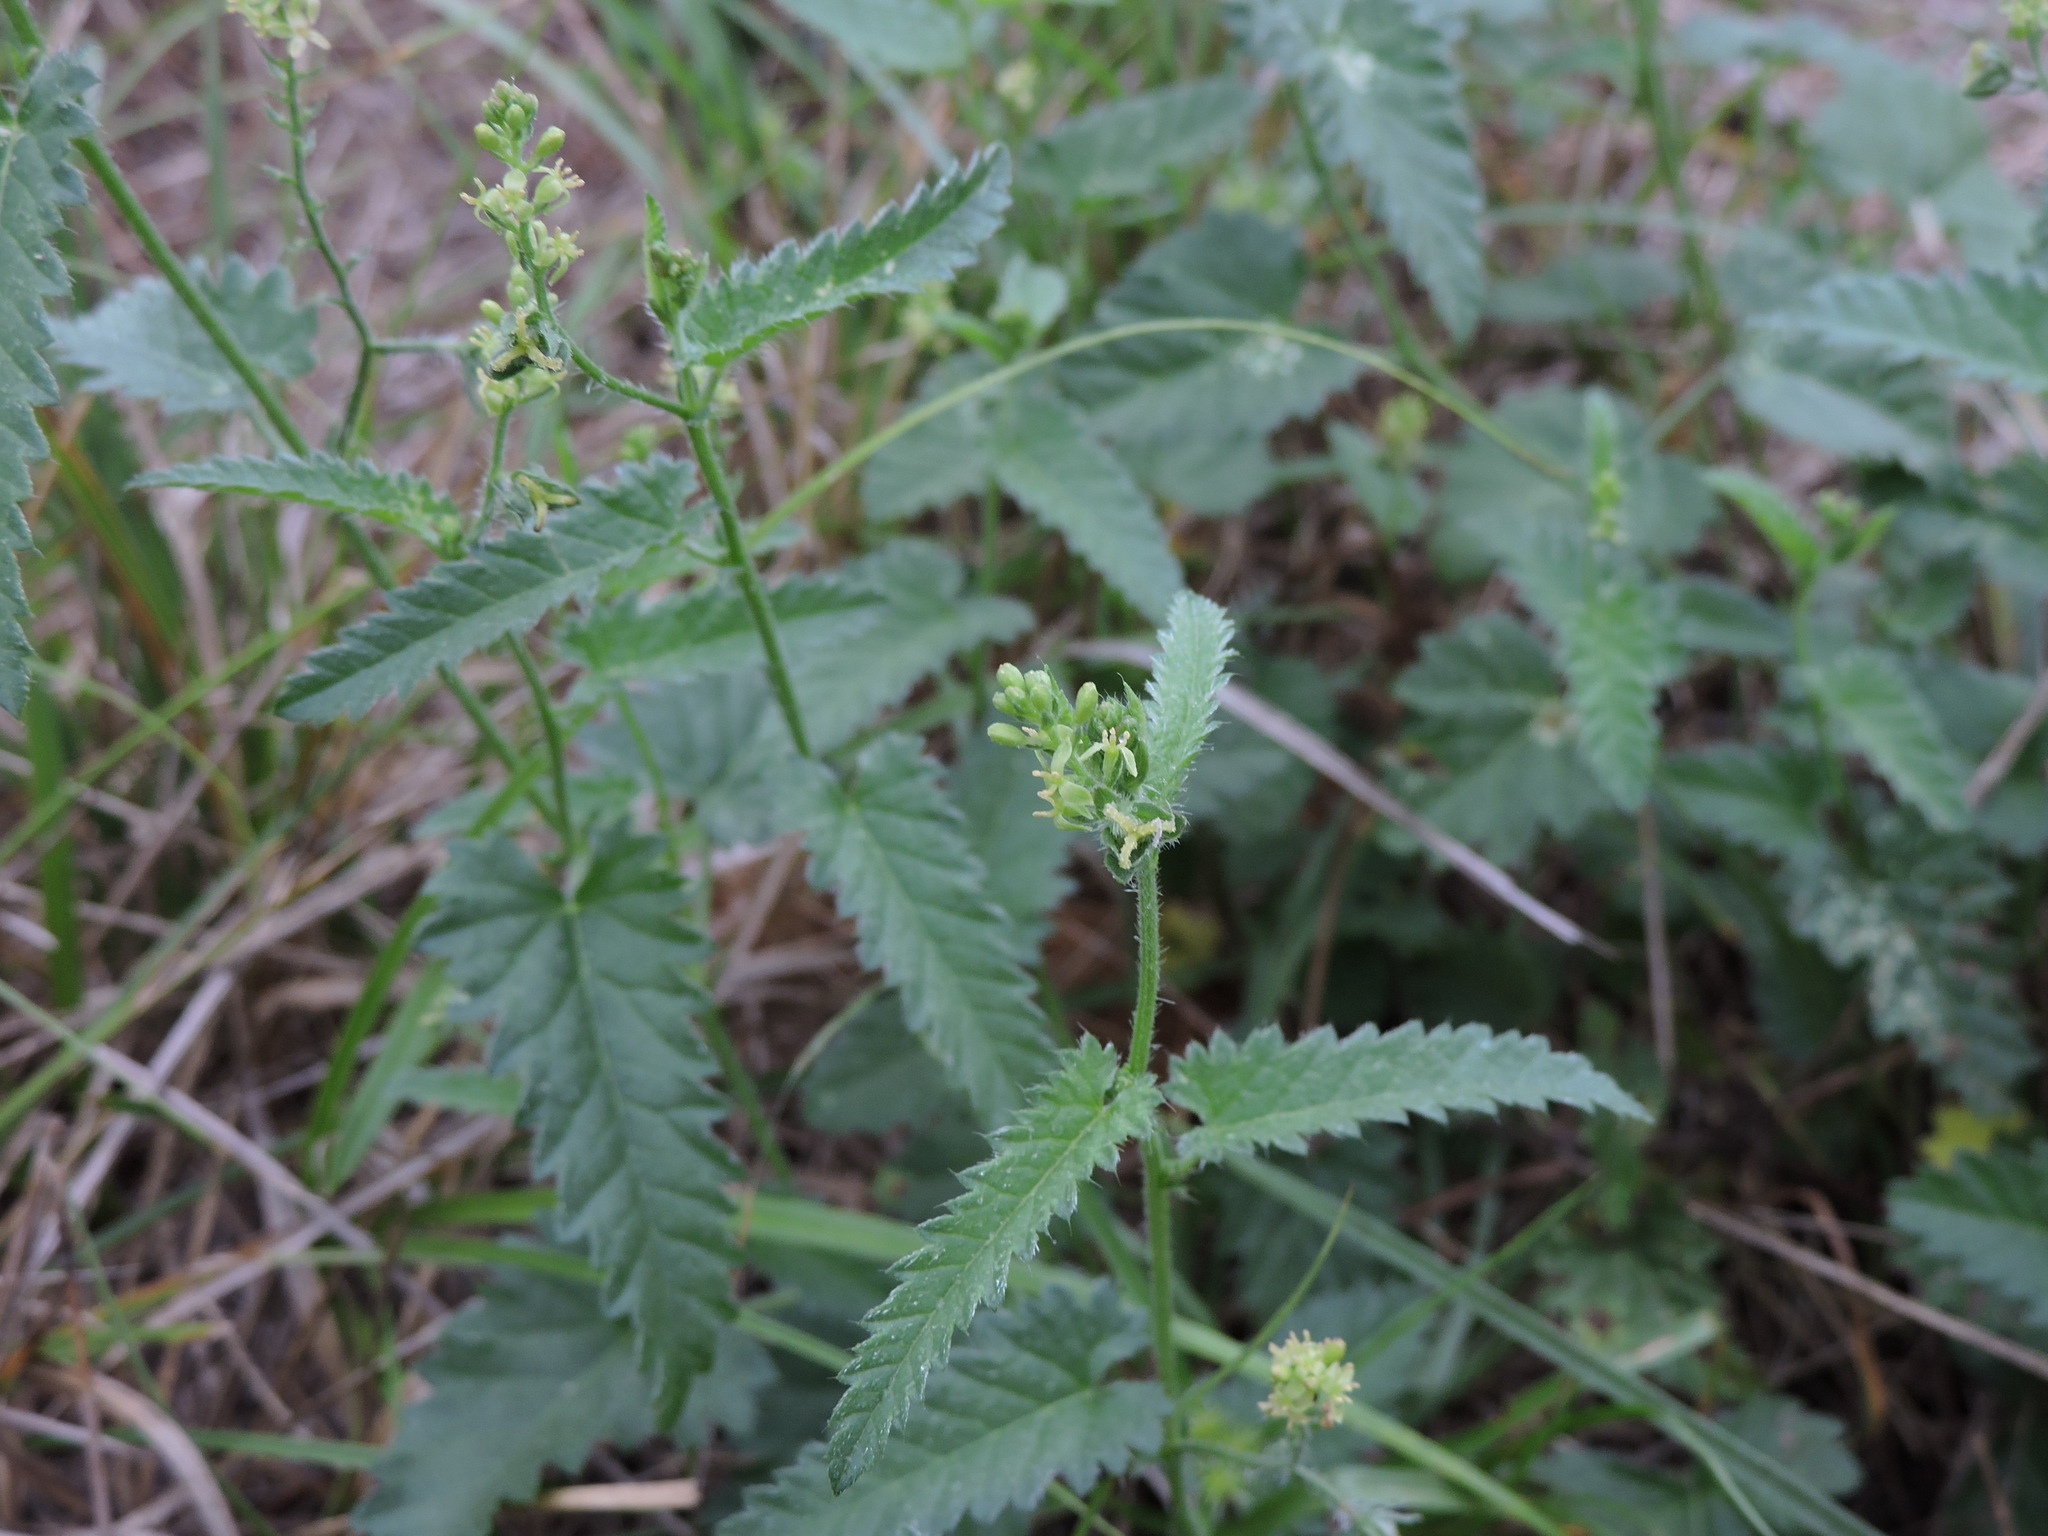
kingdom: Plantae
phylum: Tracheophyta
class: Magnoliopsida
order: Malpighiales
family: Euphorbiaceae
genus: Tragia
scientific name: Tragia ramosa
